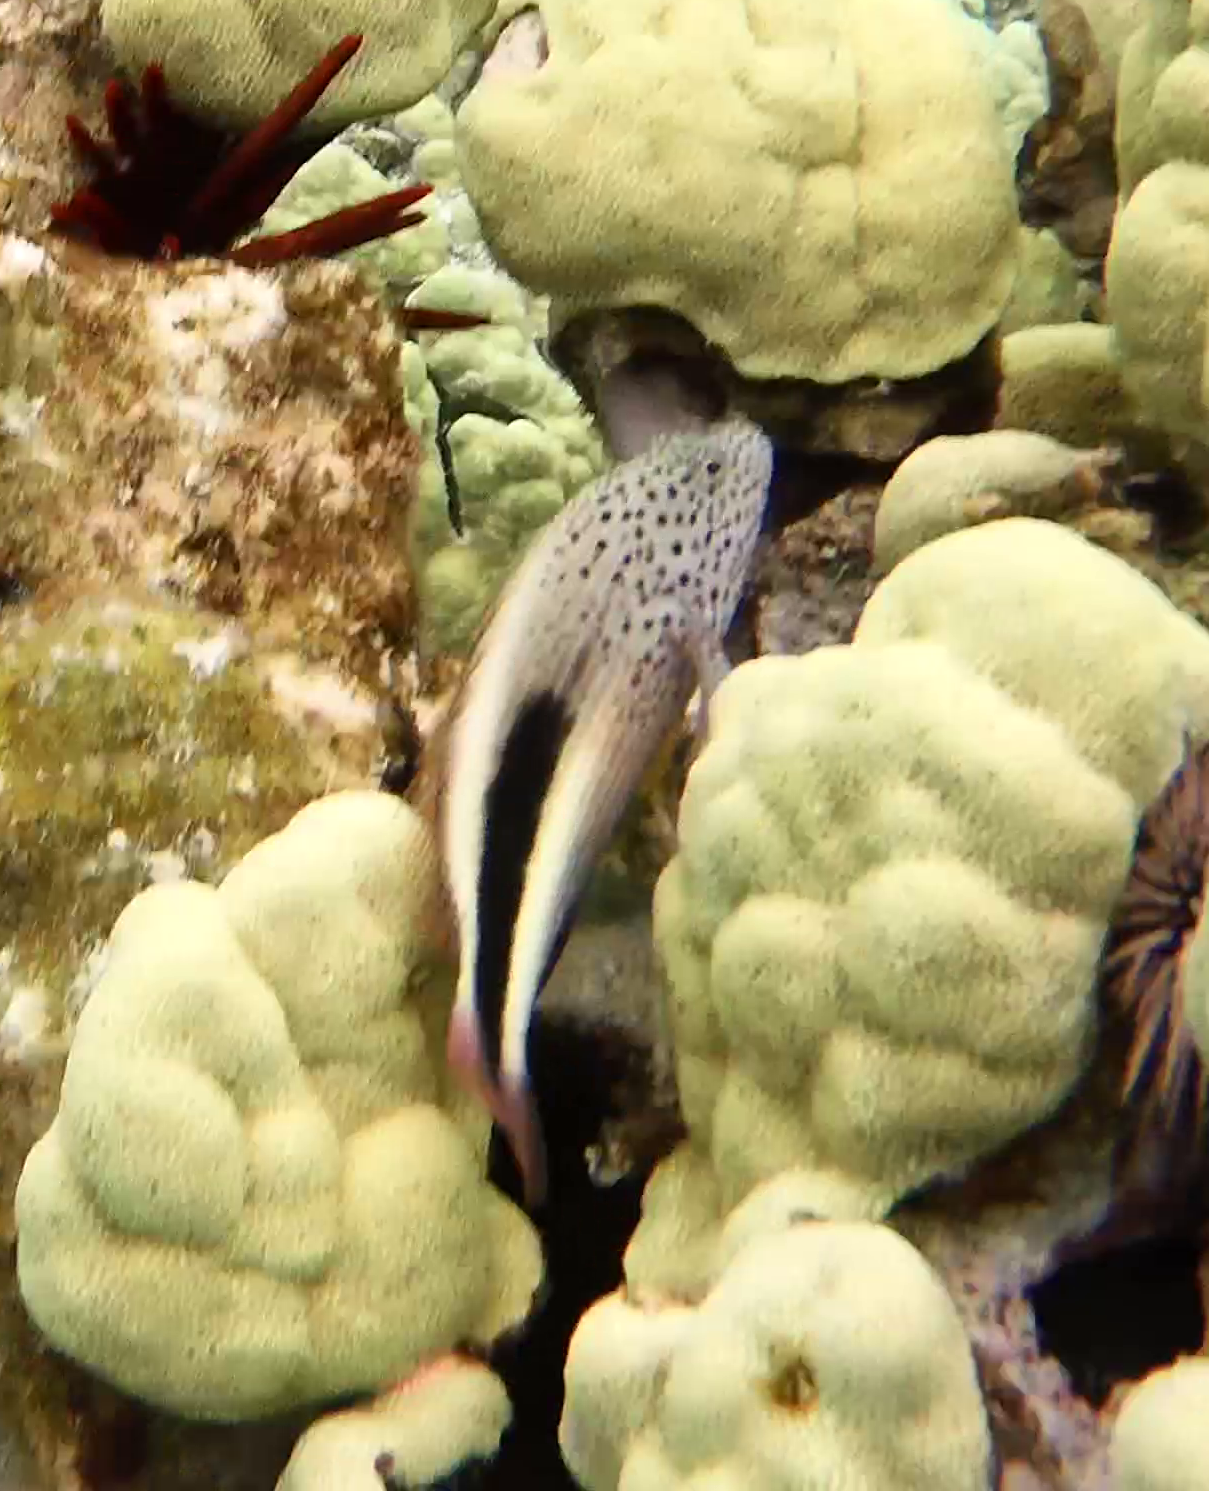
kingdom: Animalia
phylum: Chordata
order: Perciformes
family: Cirrhitidae
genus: Paracirrhites
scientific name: Paracirrhites forsteri
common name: Freckled hawkfish
